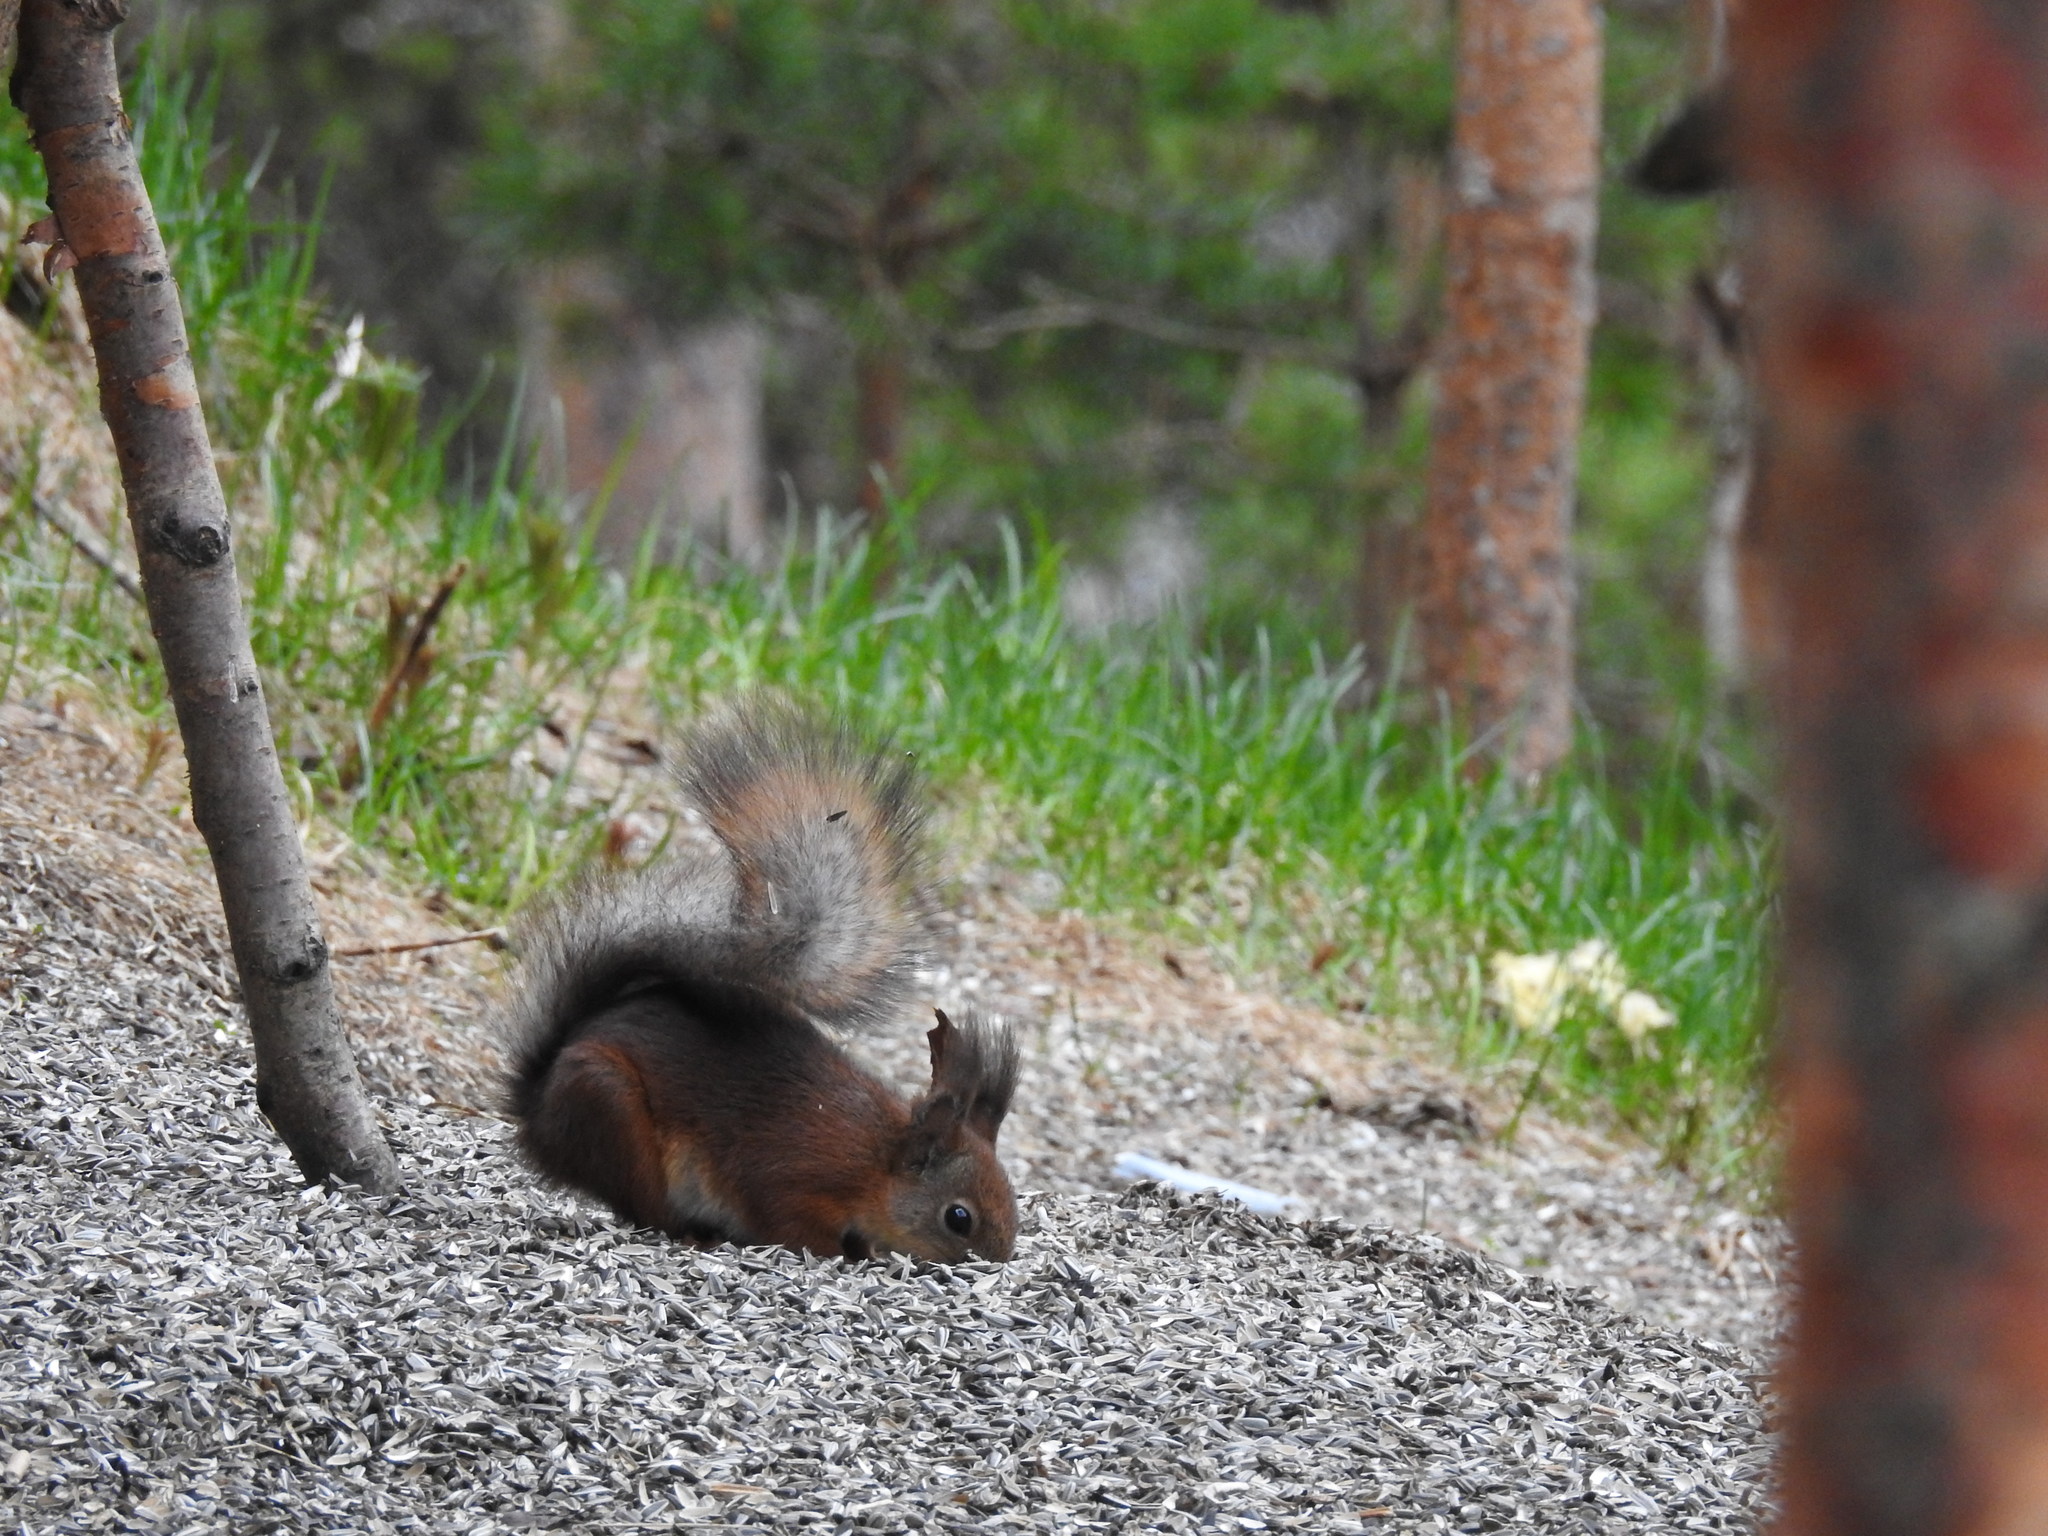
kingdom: Animalia
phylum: Chordata
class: Mammalia
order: Rodentia
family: Sciuridae
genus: Sciurus
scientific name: Sciurus vulgaris
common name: Eurasian red squirrel
